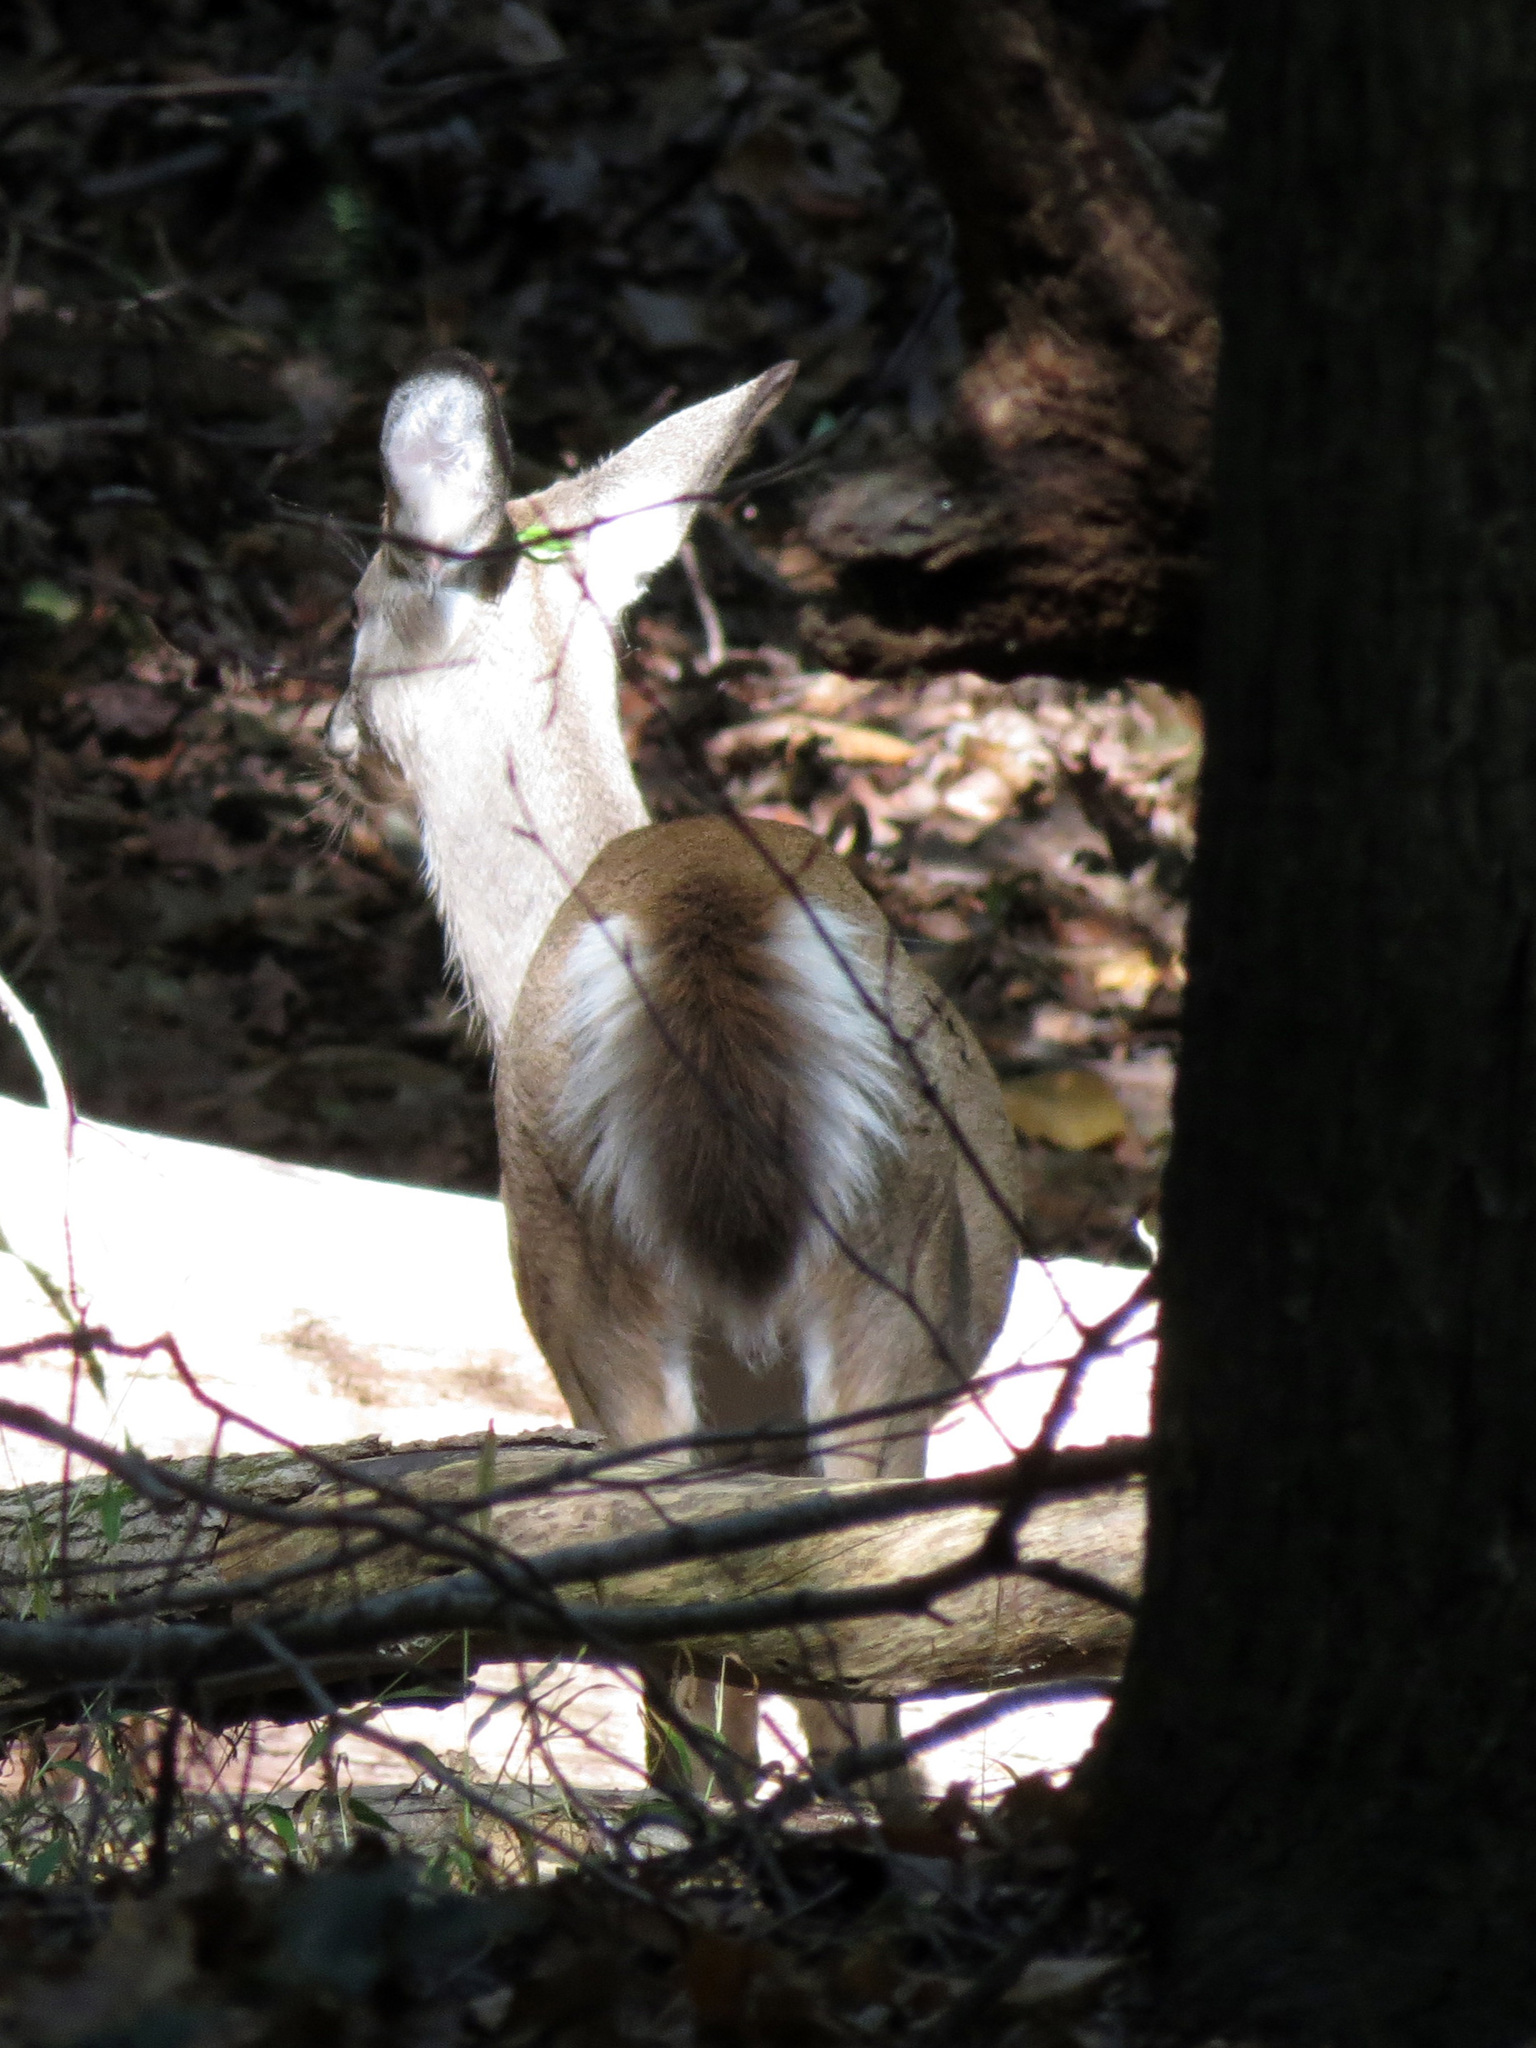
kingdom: Animalia
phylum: Chordata
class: Mammalia
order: Artiodactyla
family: Cervidae
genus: Odocoileus
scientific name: Odocoileus virginianus
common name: White-tailed deer
